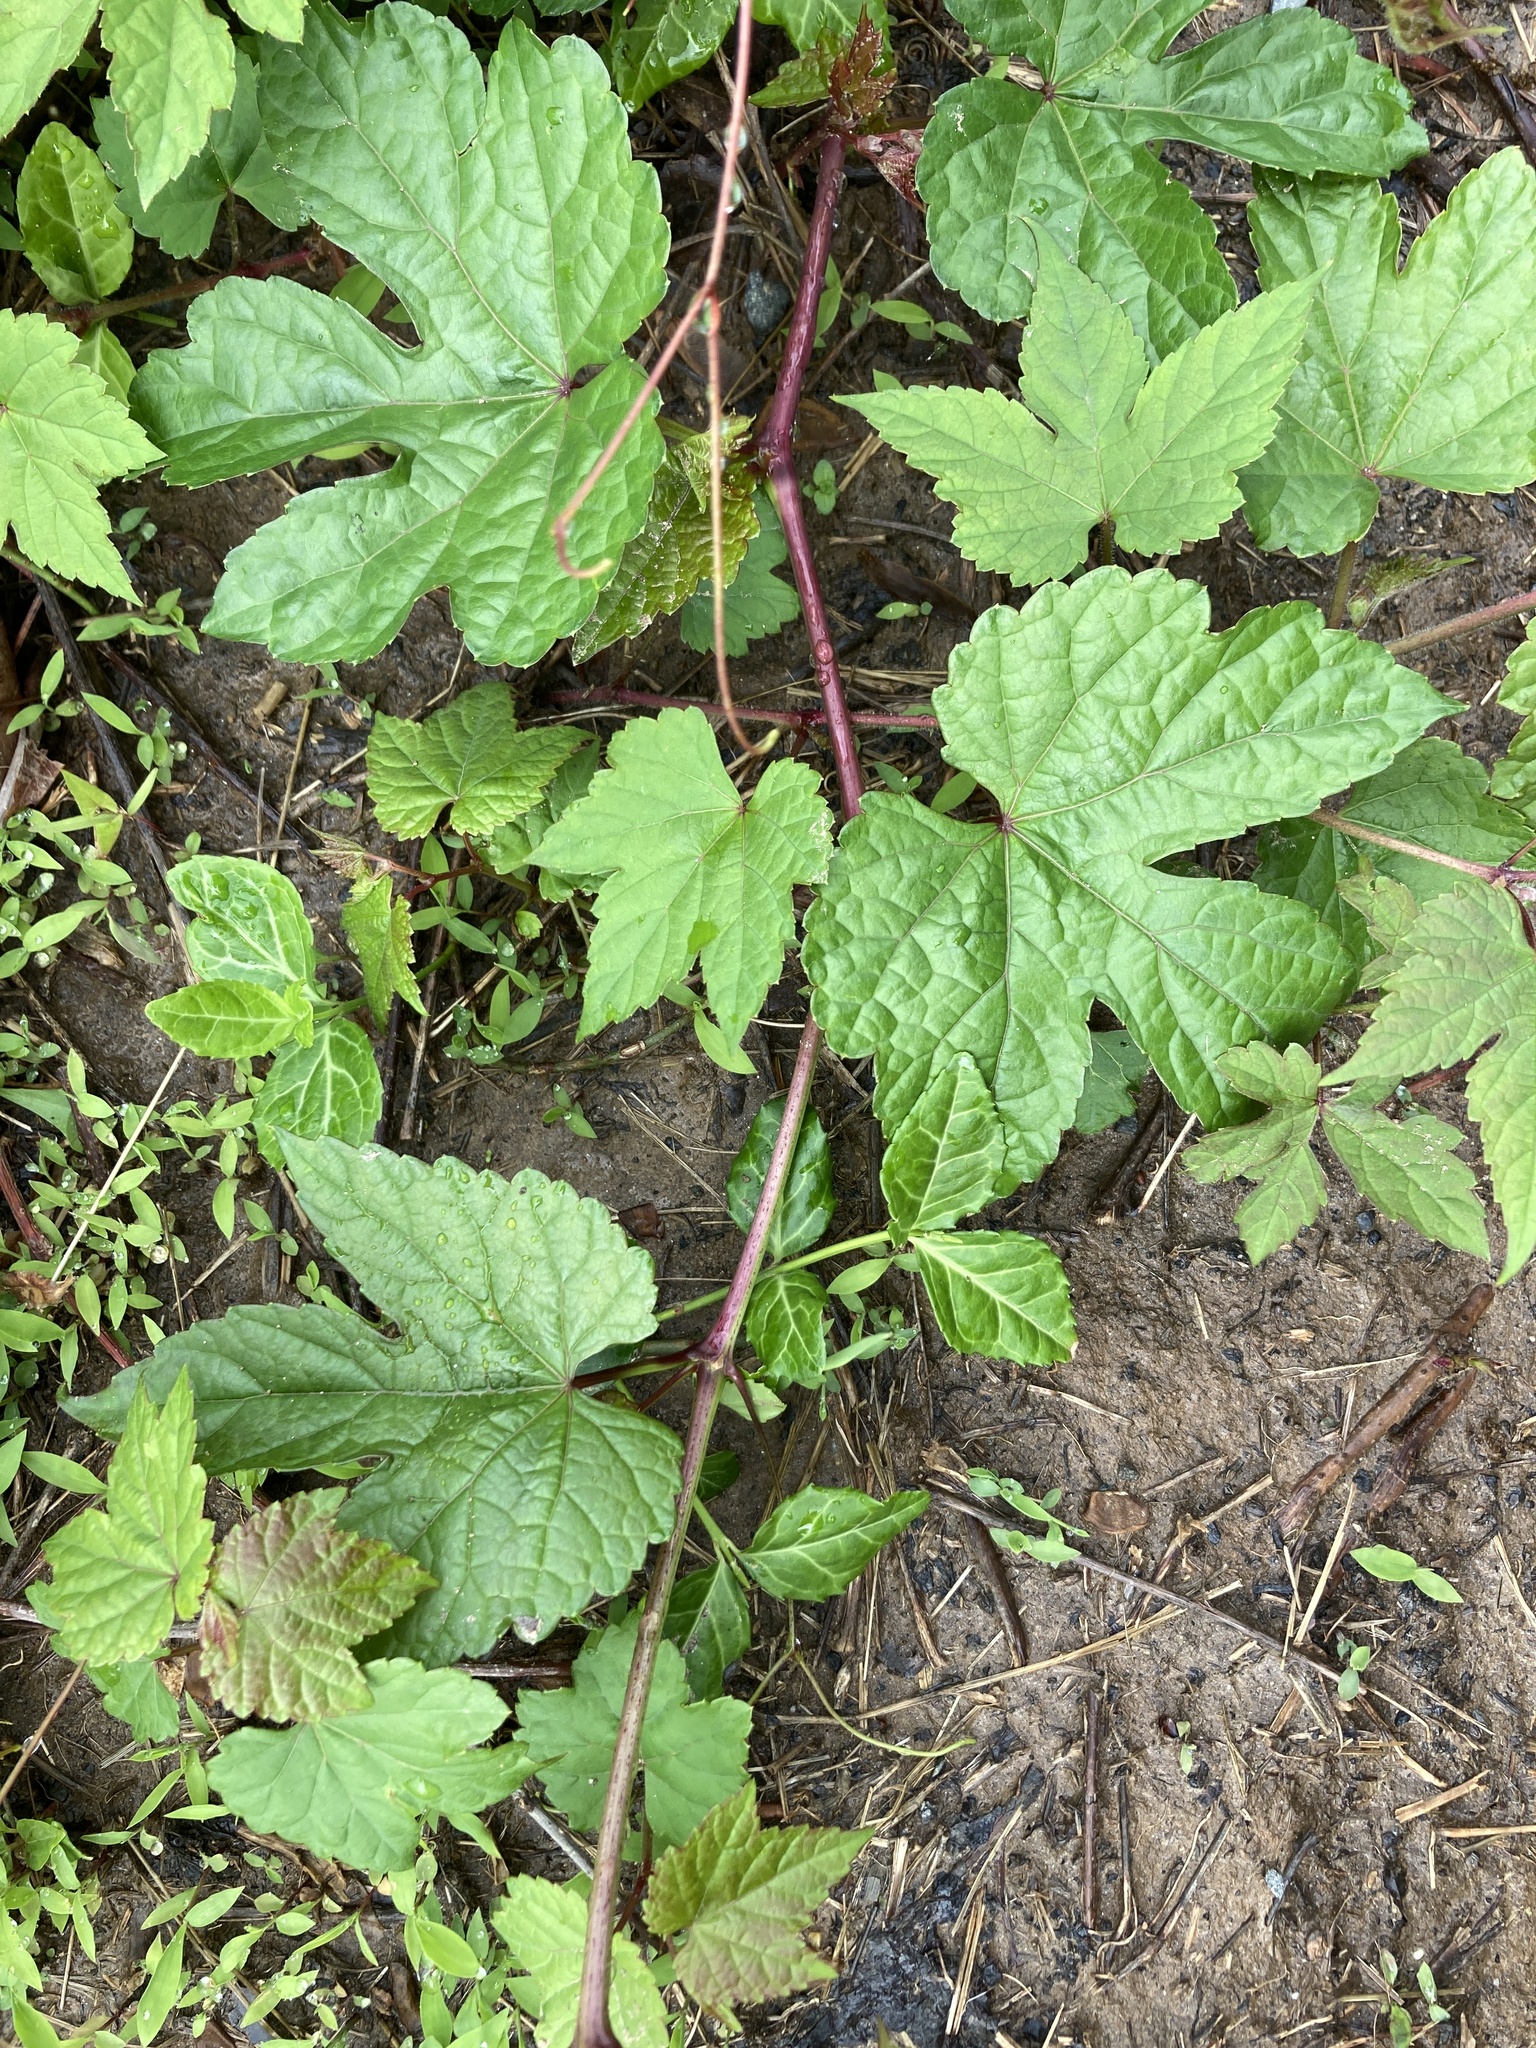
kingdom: Plantae
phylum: Tracheophyta
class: Magnoliopsida
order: Vitales
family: Vitaceae
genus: Ampelopsis
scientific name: Ampelopsis glandulosa
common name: Amur peppervine
